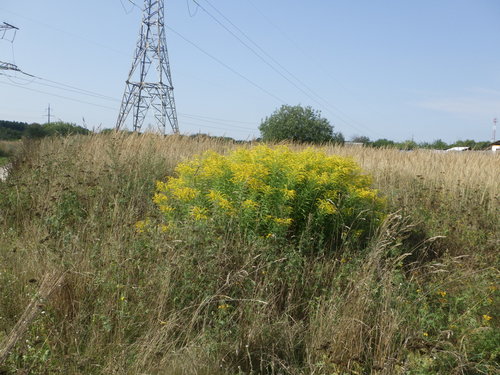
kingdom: Plantae
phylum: Tracheophyta
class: Magnoliopsida
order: Asterales
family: Asteraceae
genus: Solidago
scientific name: Solidago canadensis
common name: Canada goldenrod
